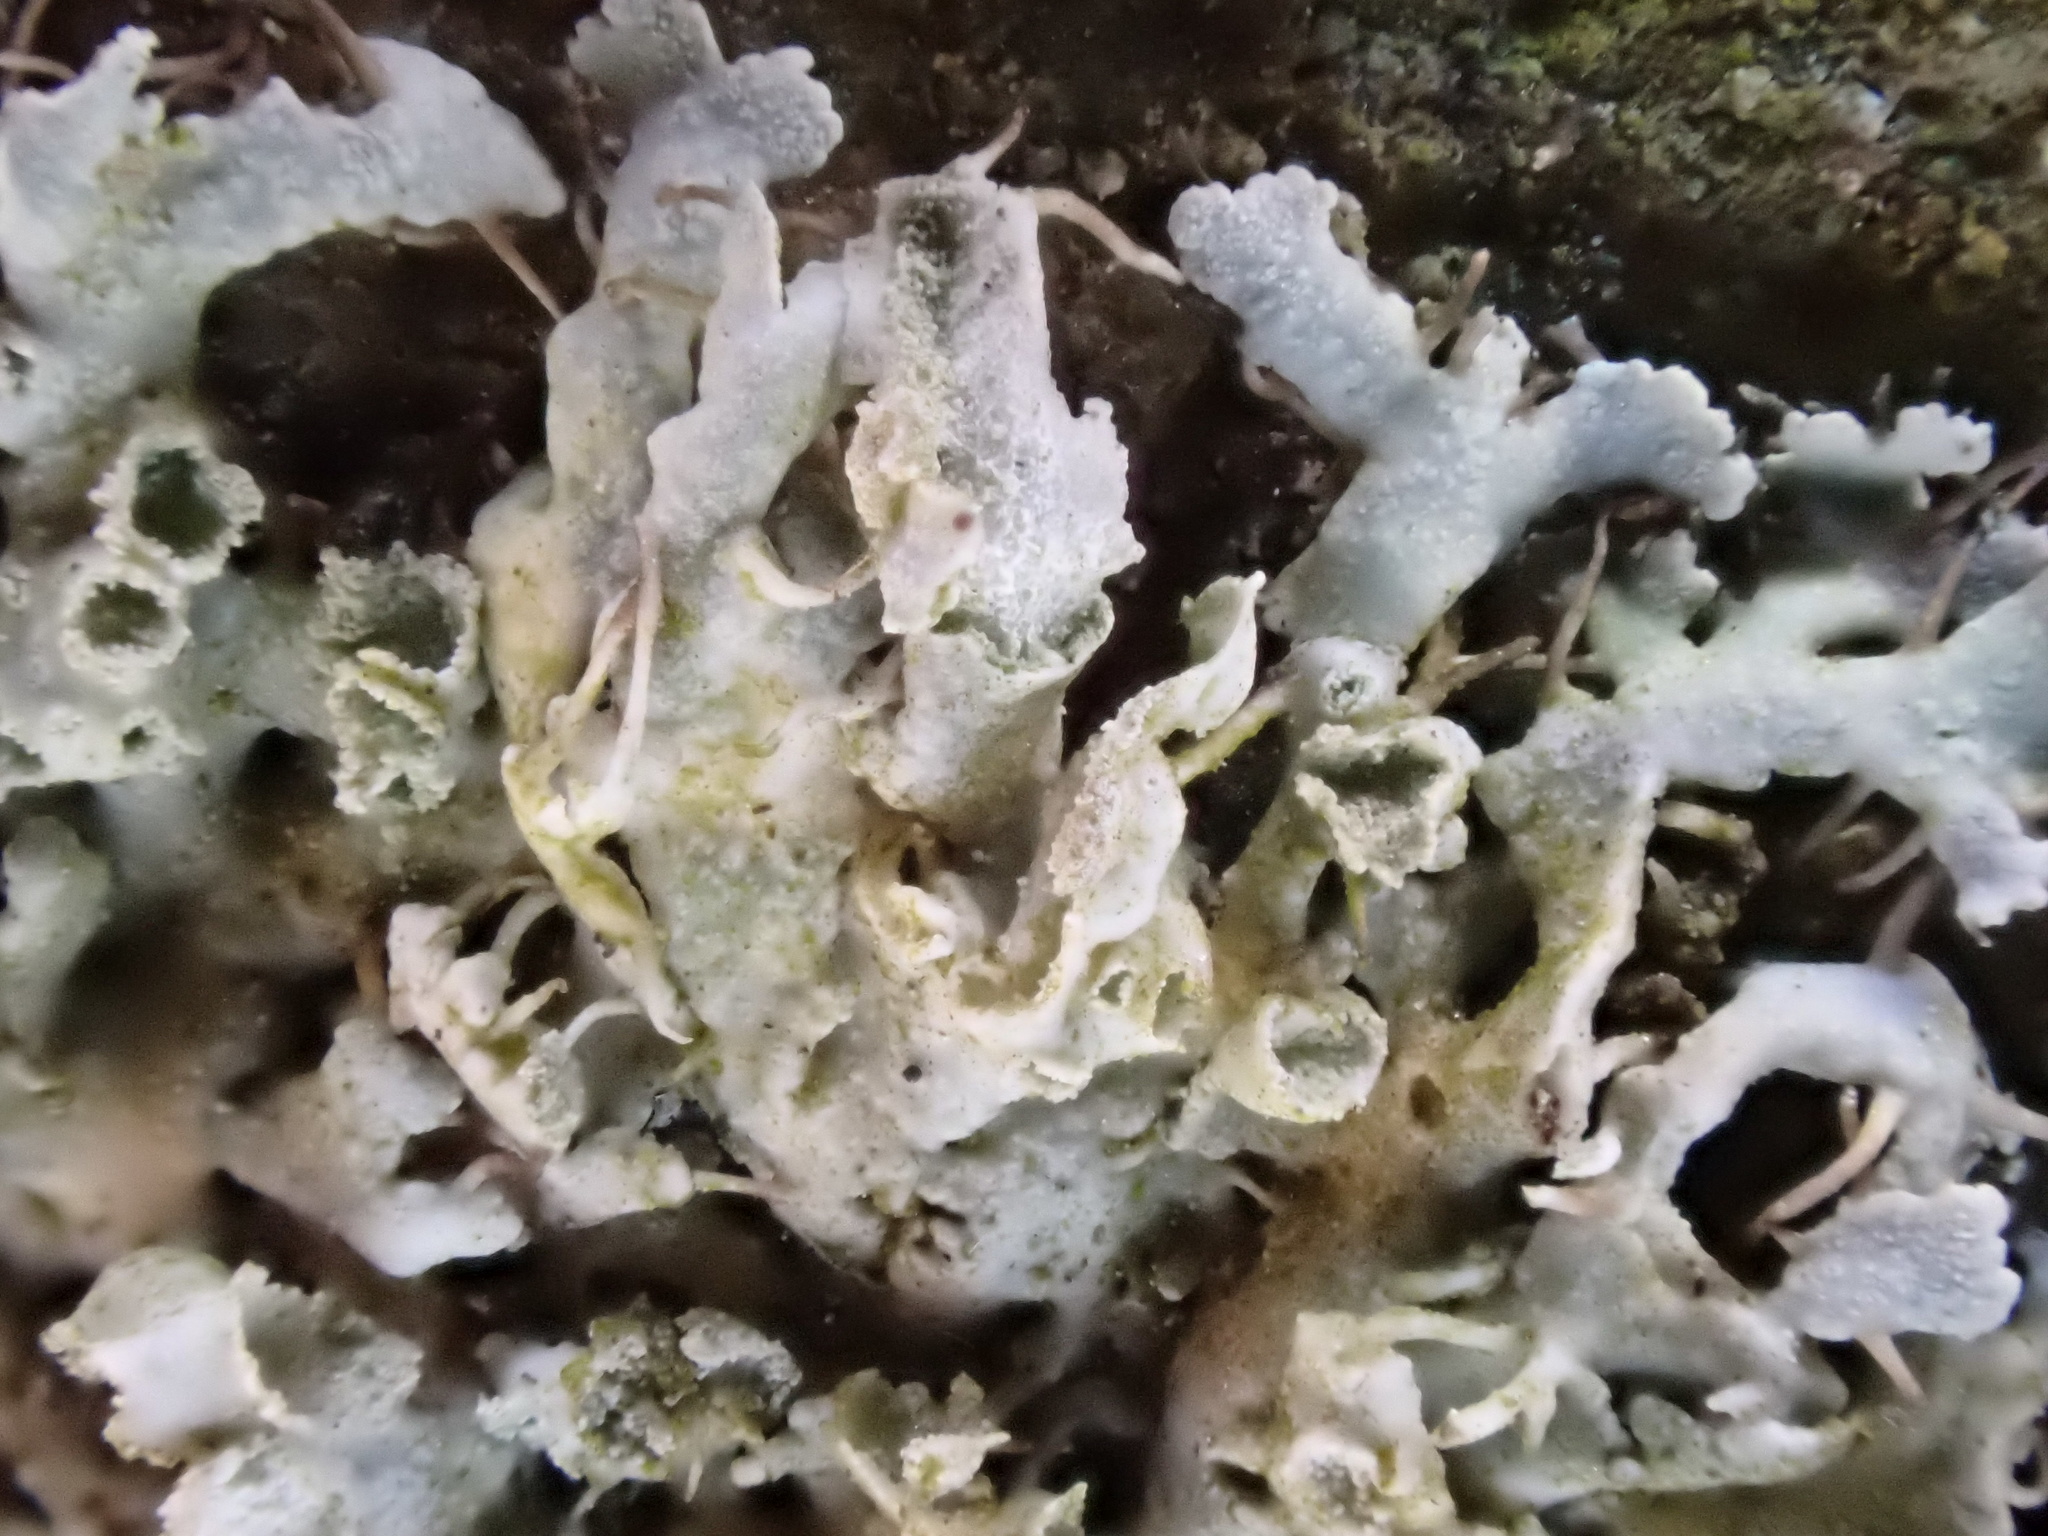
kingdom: Fungi
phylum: Ascomycota
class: Lecanoromycetes
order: Caliciales
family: Physciaceae
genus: Physcia
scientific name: Physcia adscendens
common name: Hooded rosette lichen
